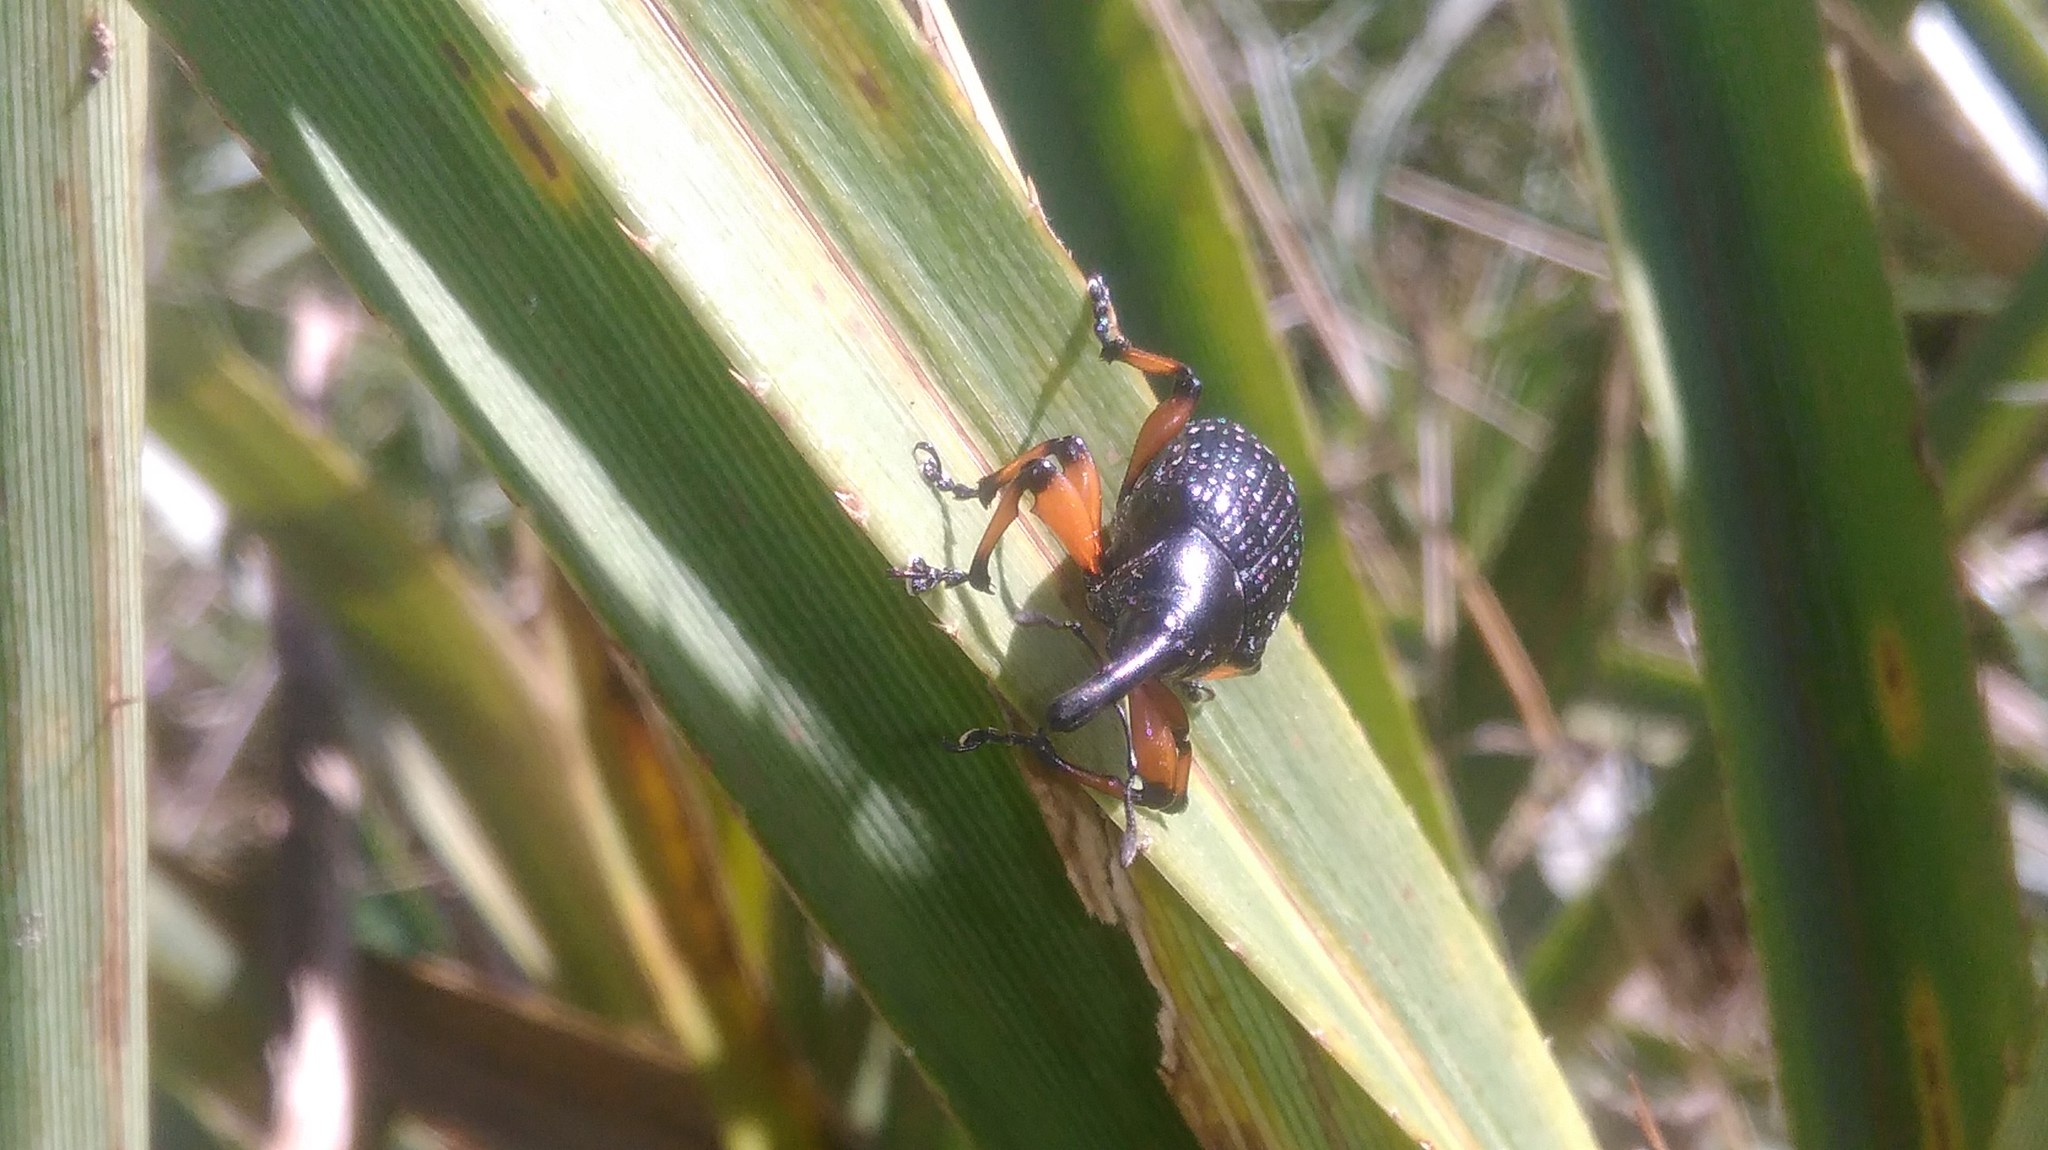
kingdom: Animalia
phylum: Arthropoda
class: Insecta
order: Coleoptera
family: Curculionidae
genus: Heilipodus
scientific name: Heilipodus erythropus
